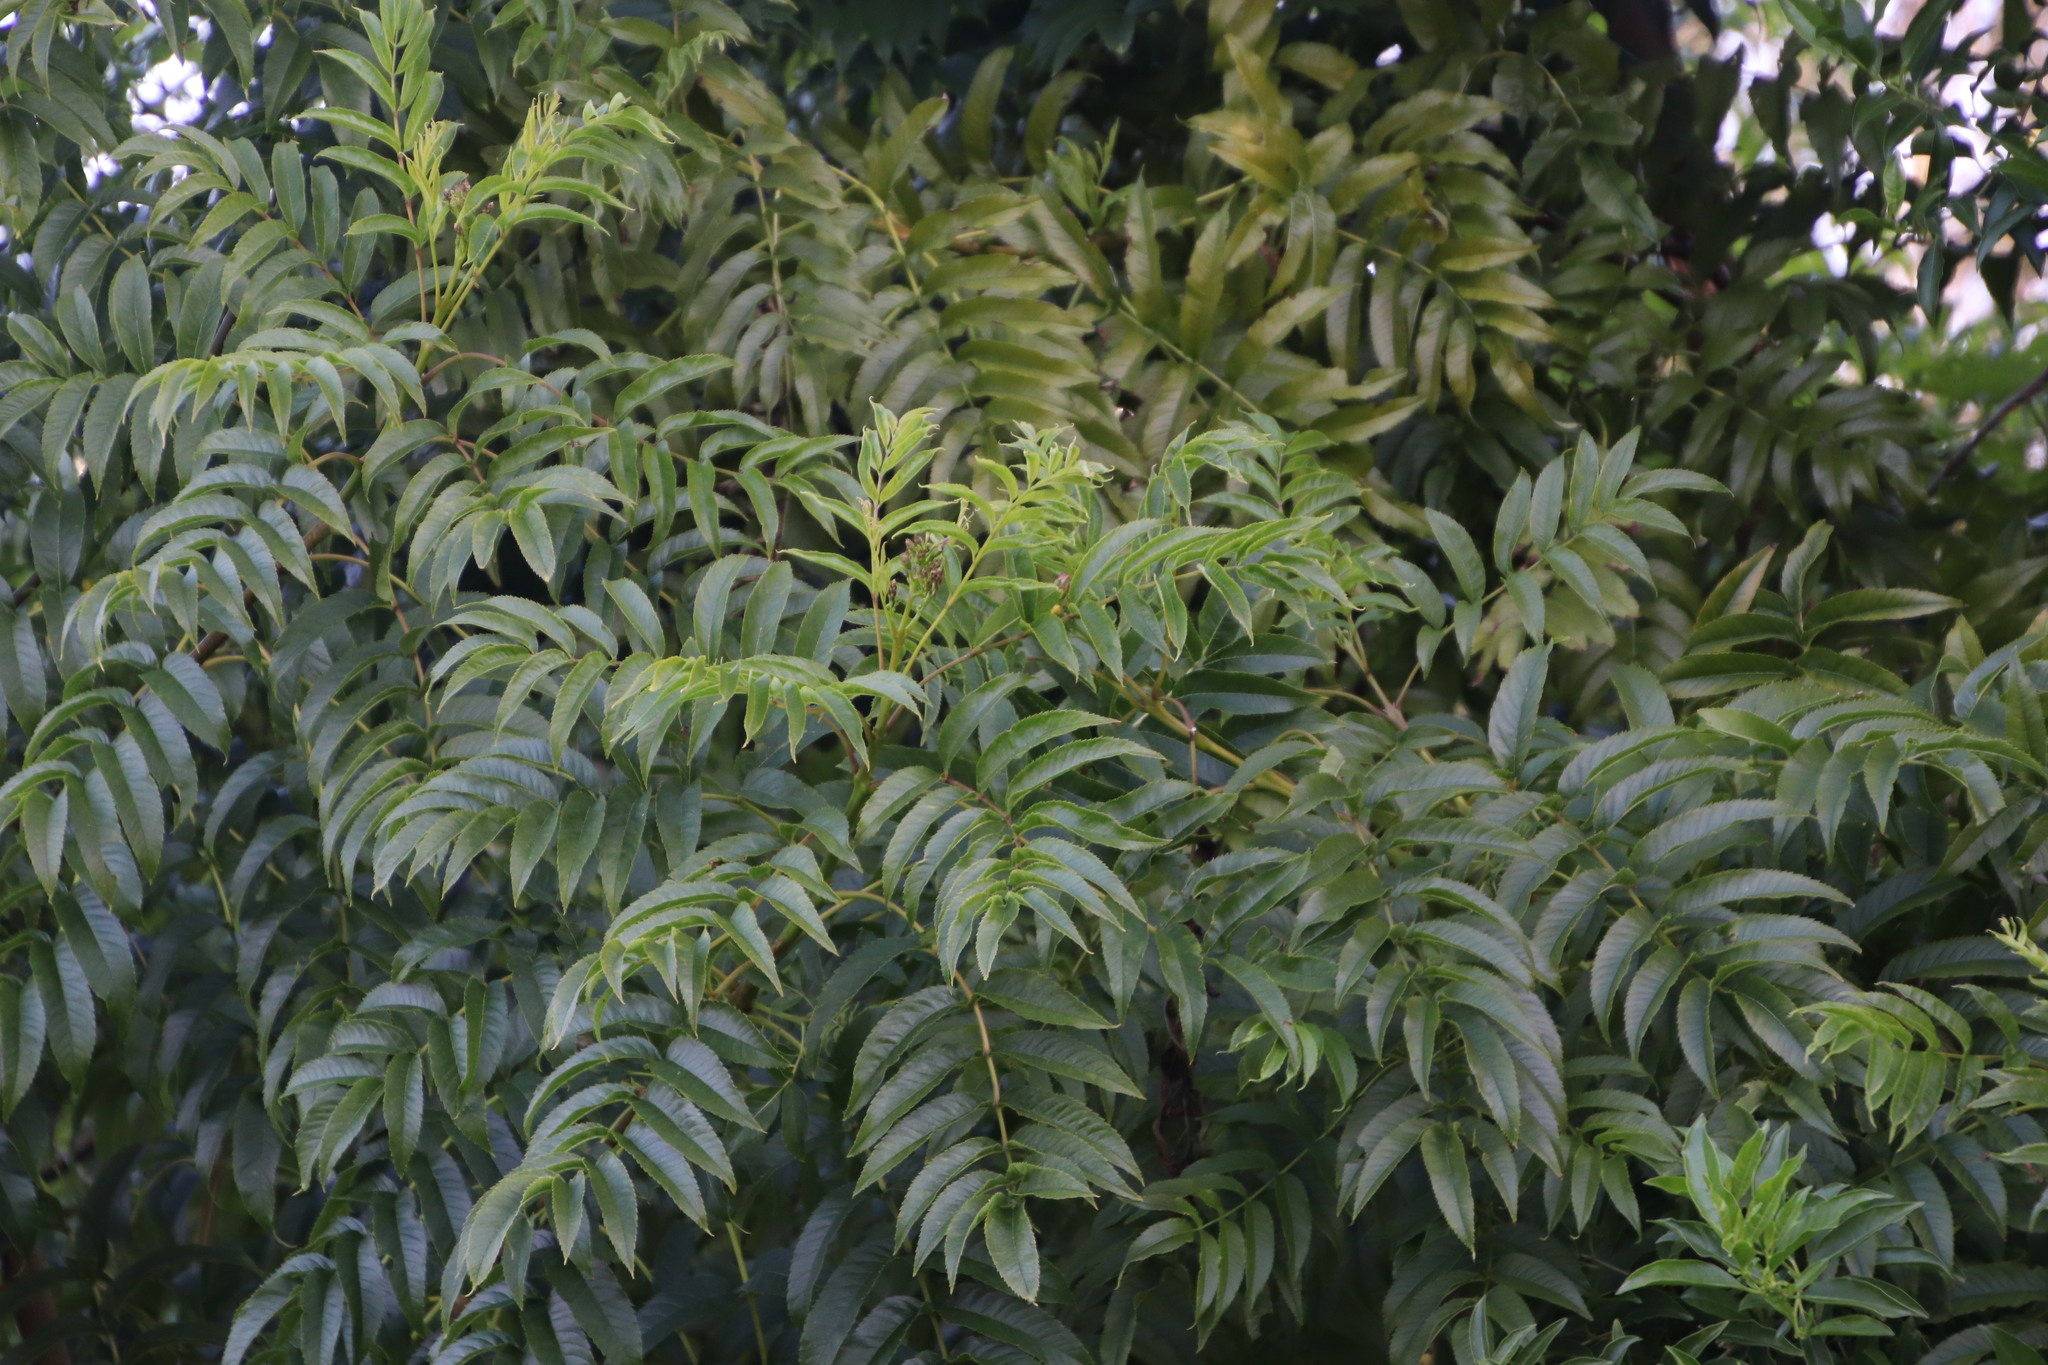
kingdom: Plantae
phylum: Tracheophyta
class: Magnoliopsida
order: Lamiales
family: Bignoniaceae
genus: Tecoma
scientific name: Tecoma stans
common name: Yellow trumpetbush
